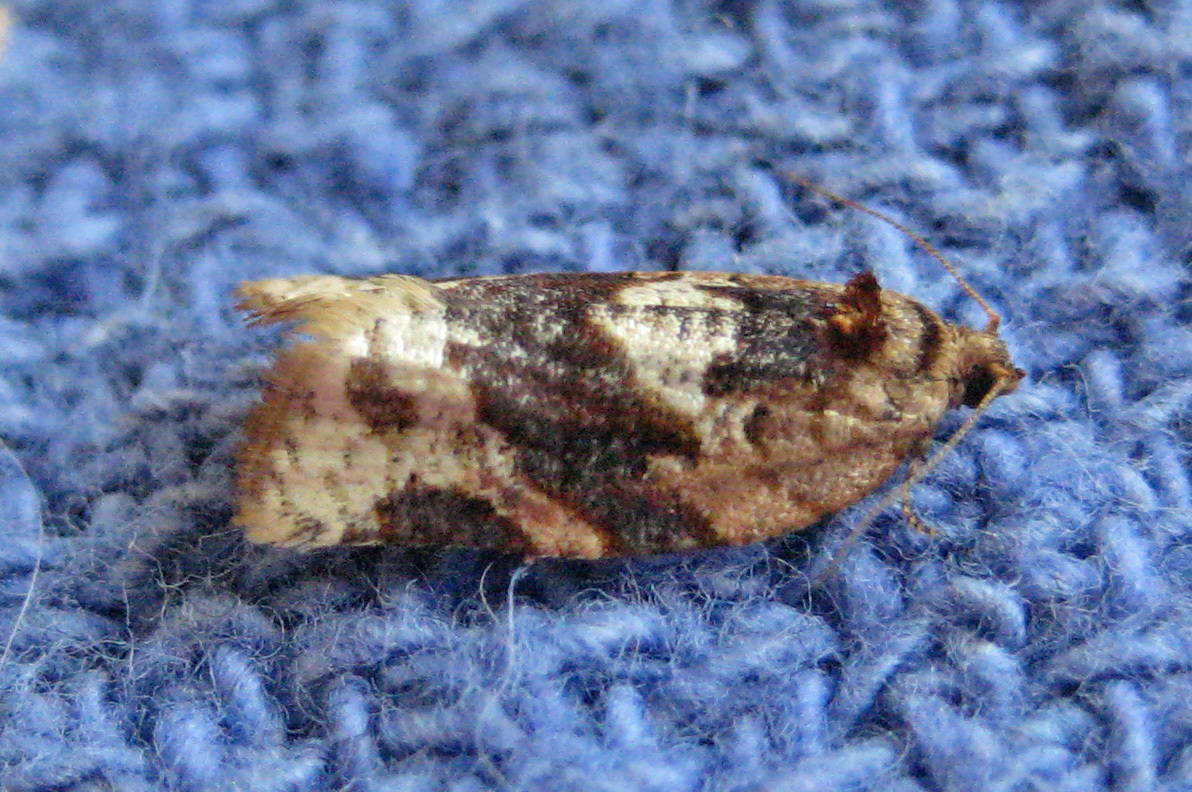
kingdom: Animalia
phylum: Arthropoda
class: Insecta
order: Lepidoptera
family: Tortricidae
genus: Argyrotaenia
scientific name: Argyrotaenia velutinana
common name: Red-banded leafroller moth
